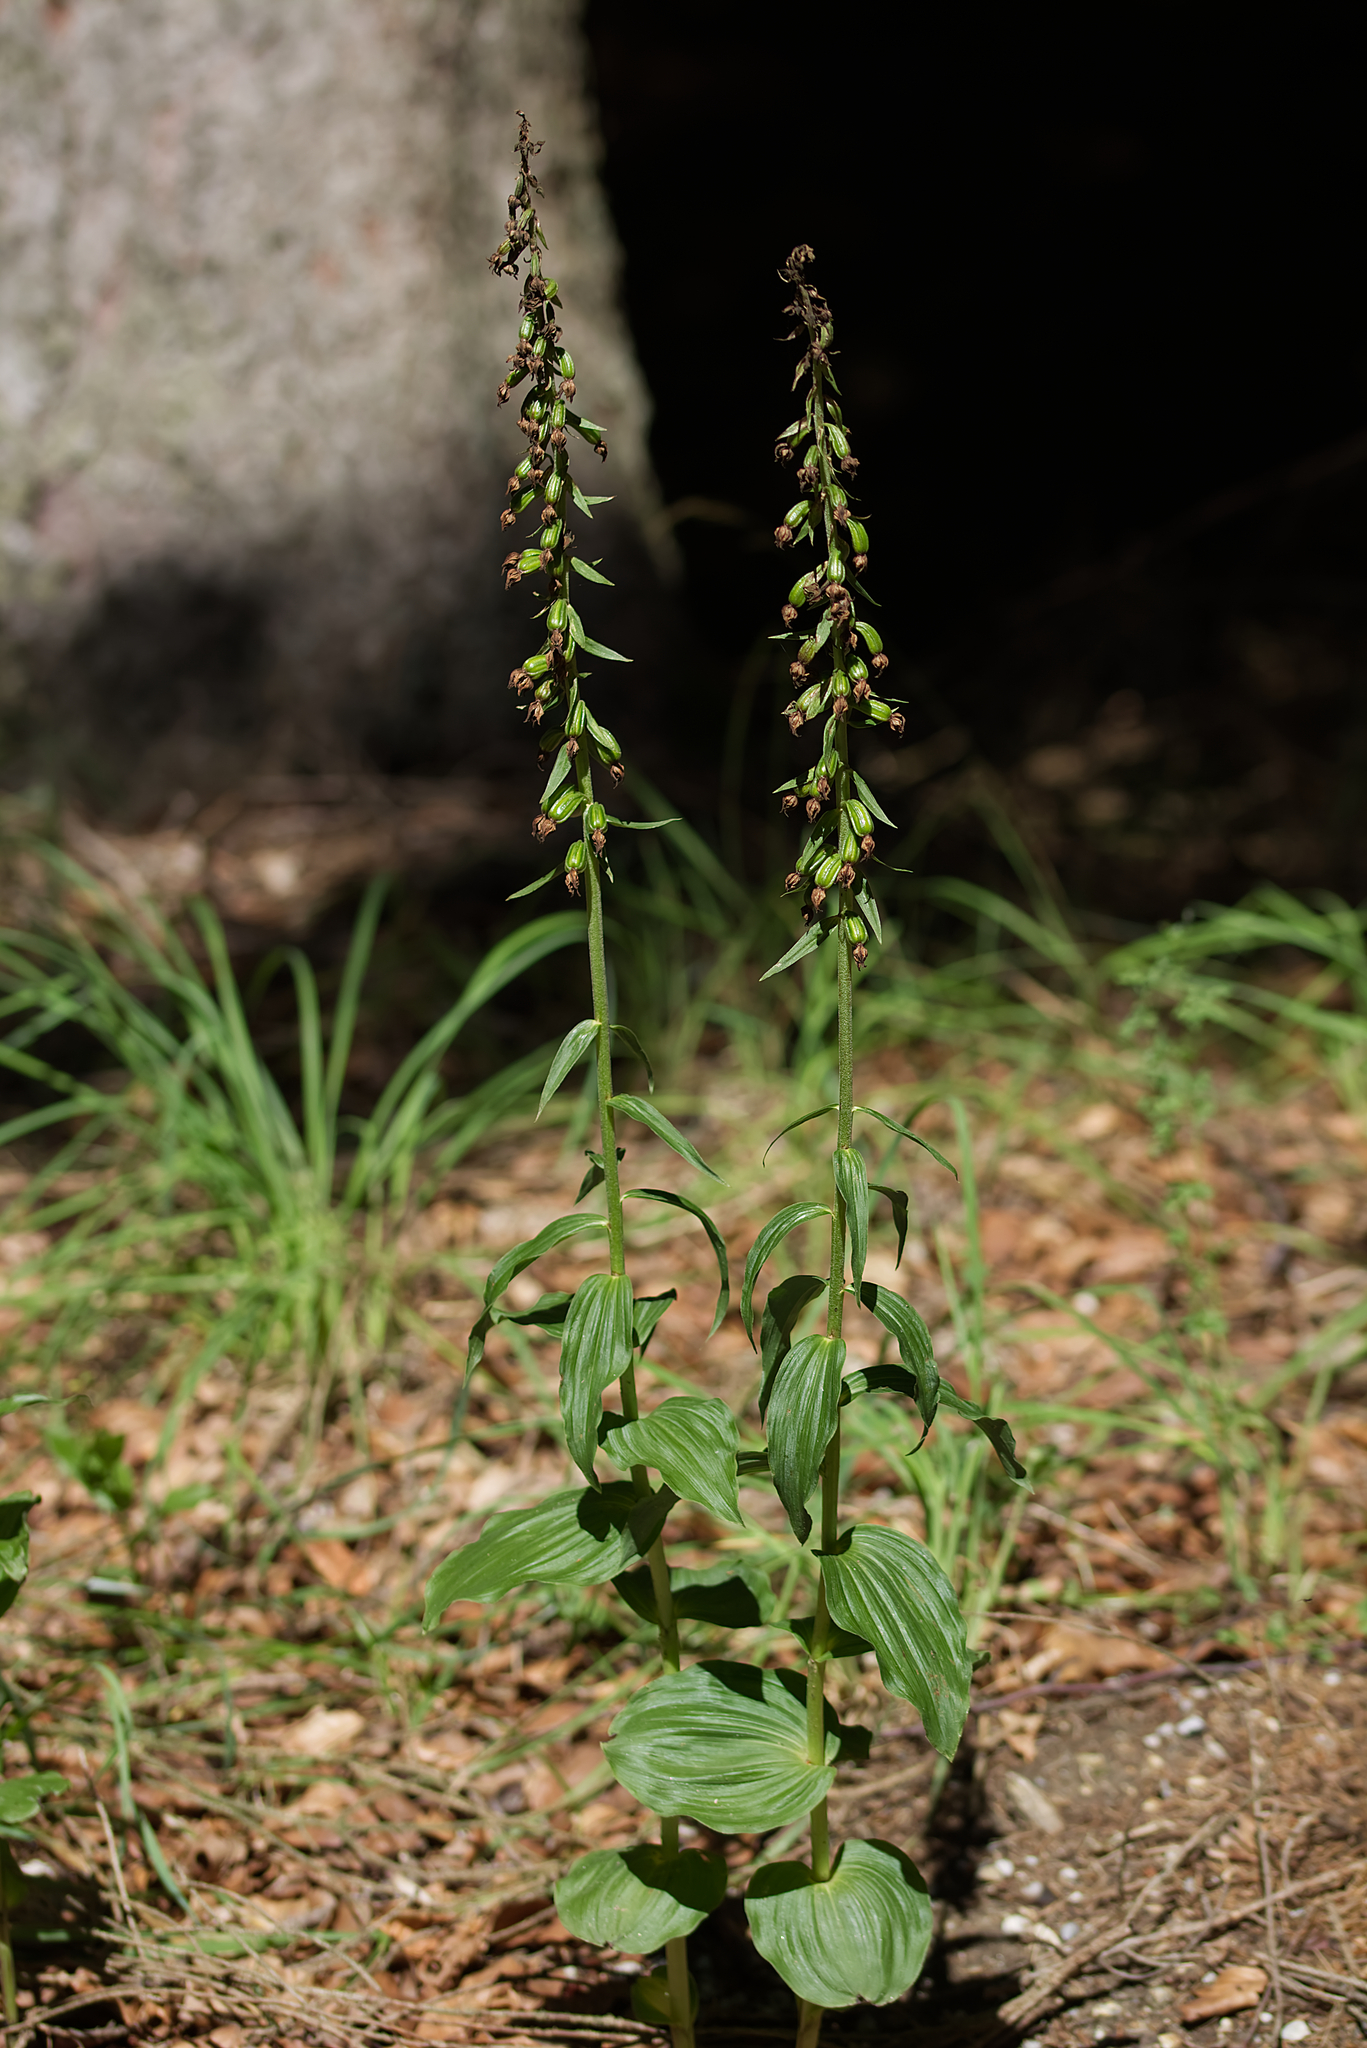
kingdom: Plantae
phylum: Tracheophyta
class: Liliopsida
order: Asparagales
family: Orchidaceae
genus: Epipactis
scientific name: Epipactis helleborine
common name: Broad-leaved helleborine
